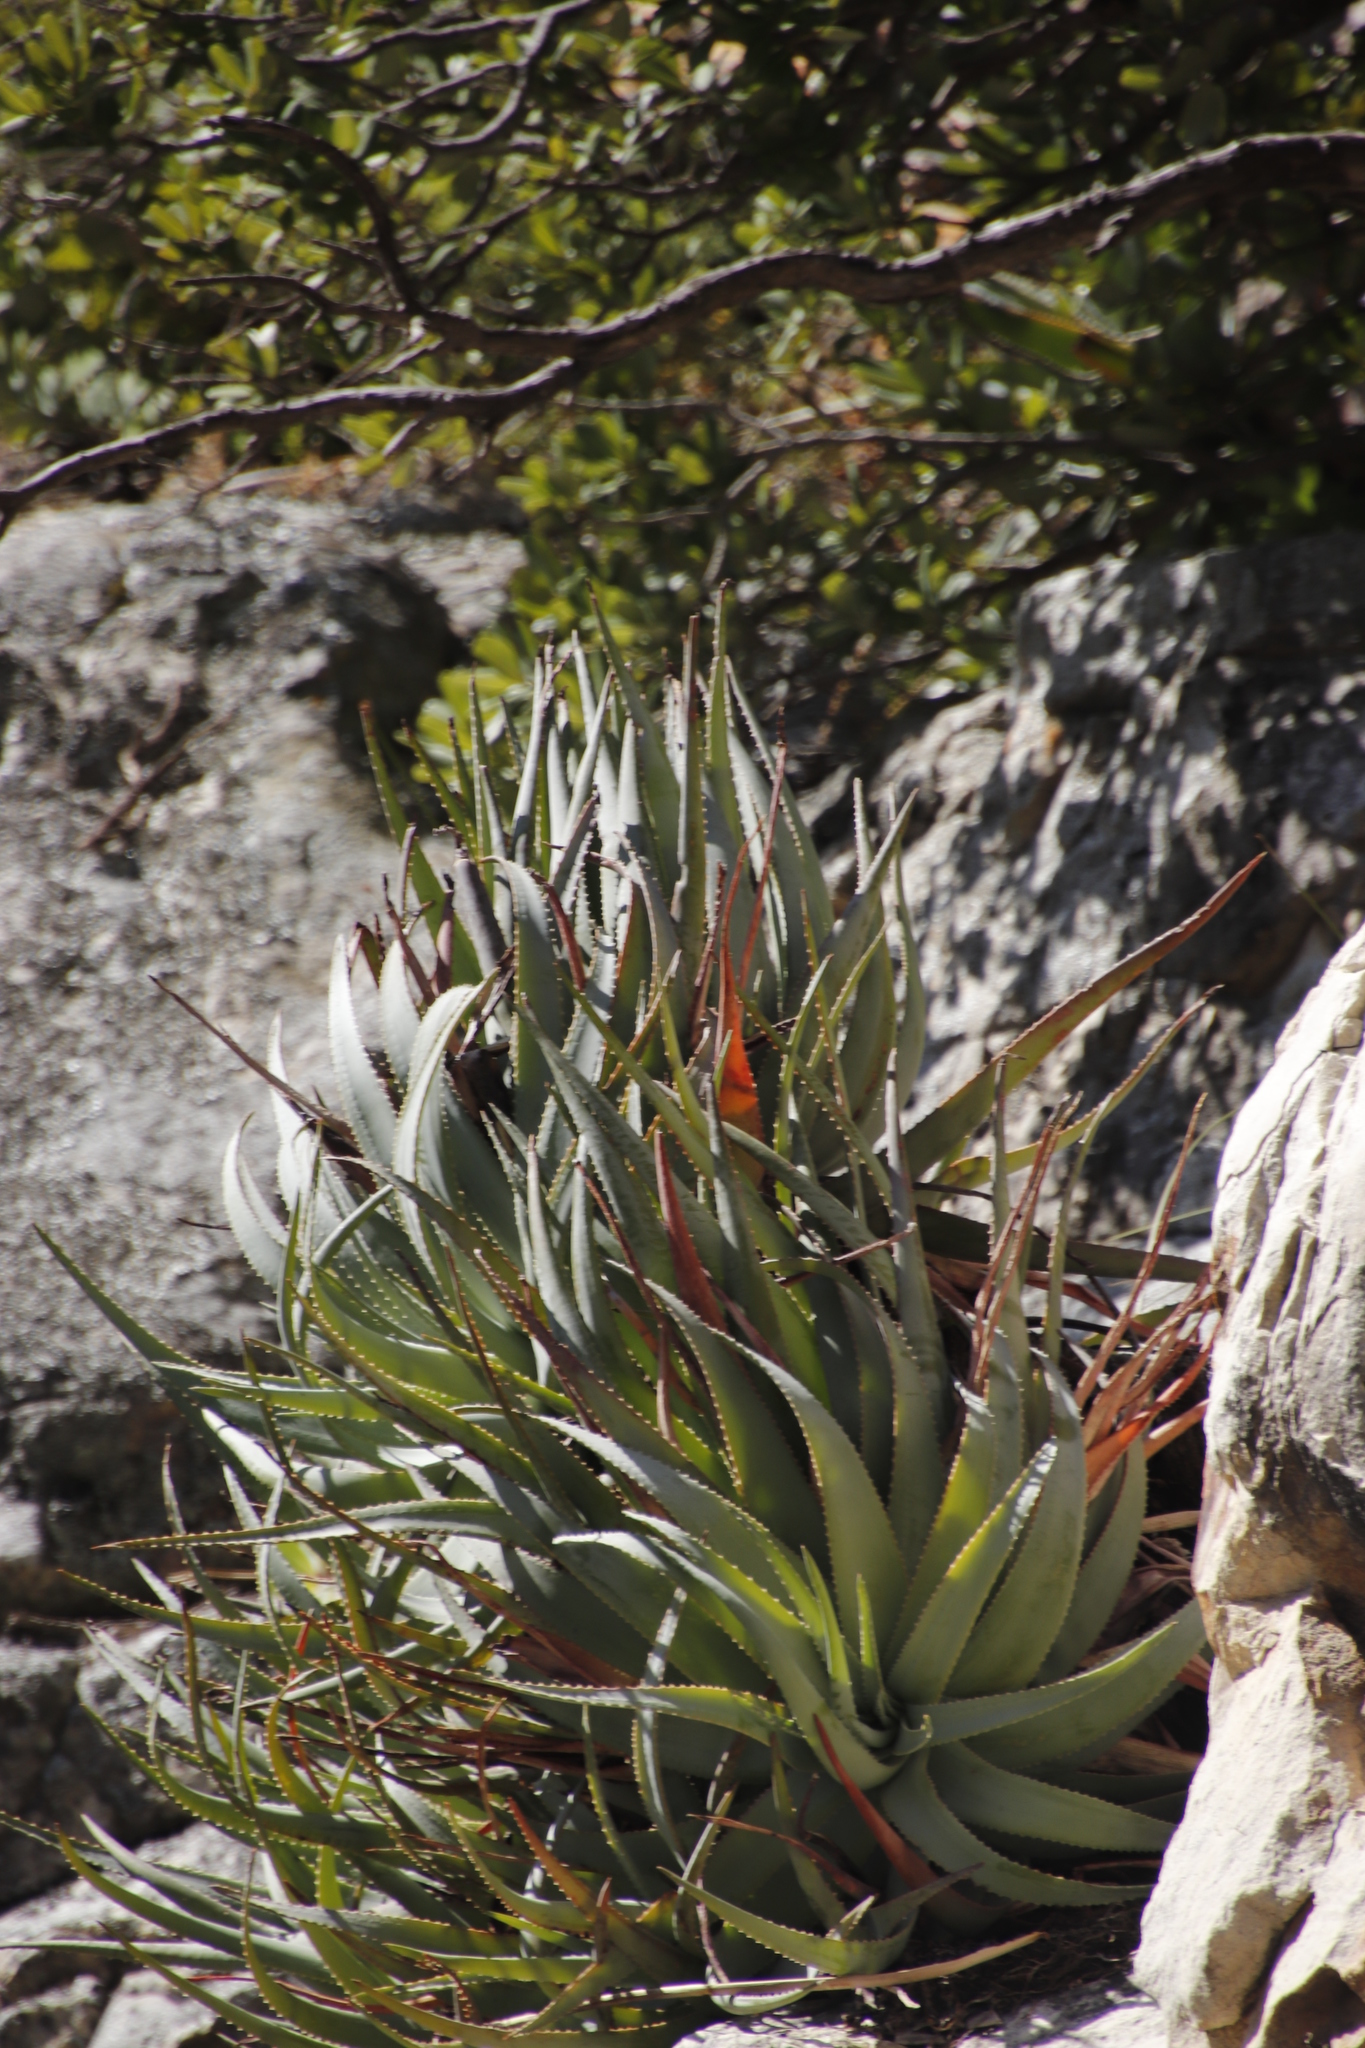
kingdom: Plantae
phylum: Tracheophyta
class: Liliopsida
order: Asparagales
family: Asphodelaceae
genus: Aloe
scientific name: Aloe succotrina
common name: Bombay aloe
